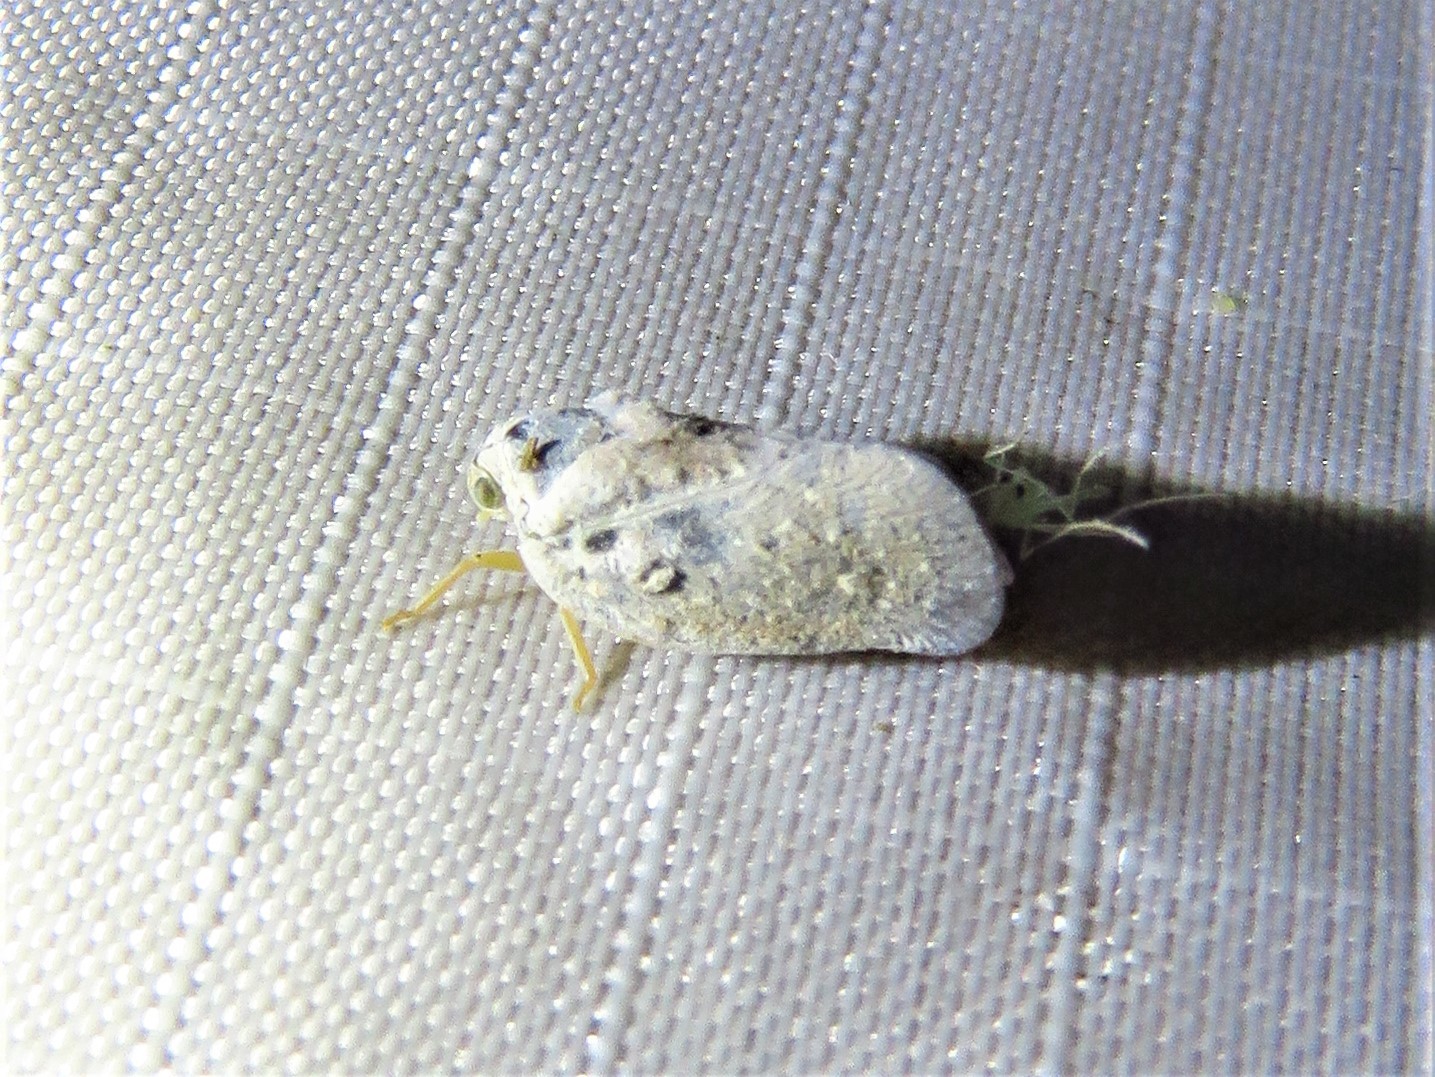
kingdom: Animalia
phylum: Arthropoda
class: Insecta
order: Hemiptera
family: Flatidae
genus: Metcalfa
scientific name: Metcalfa pruinosa
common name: Citrus flatid planthopper
